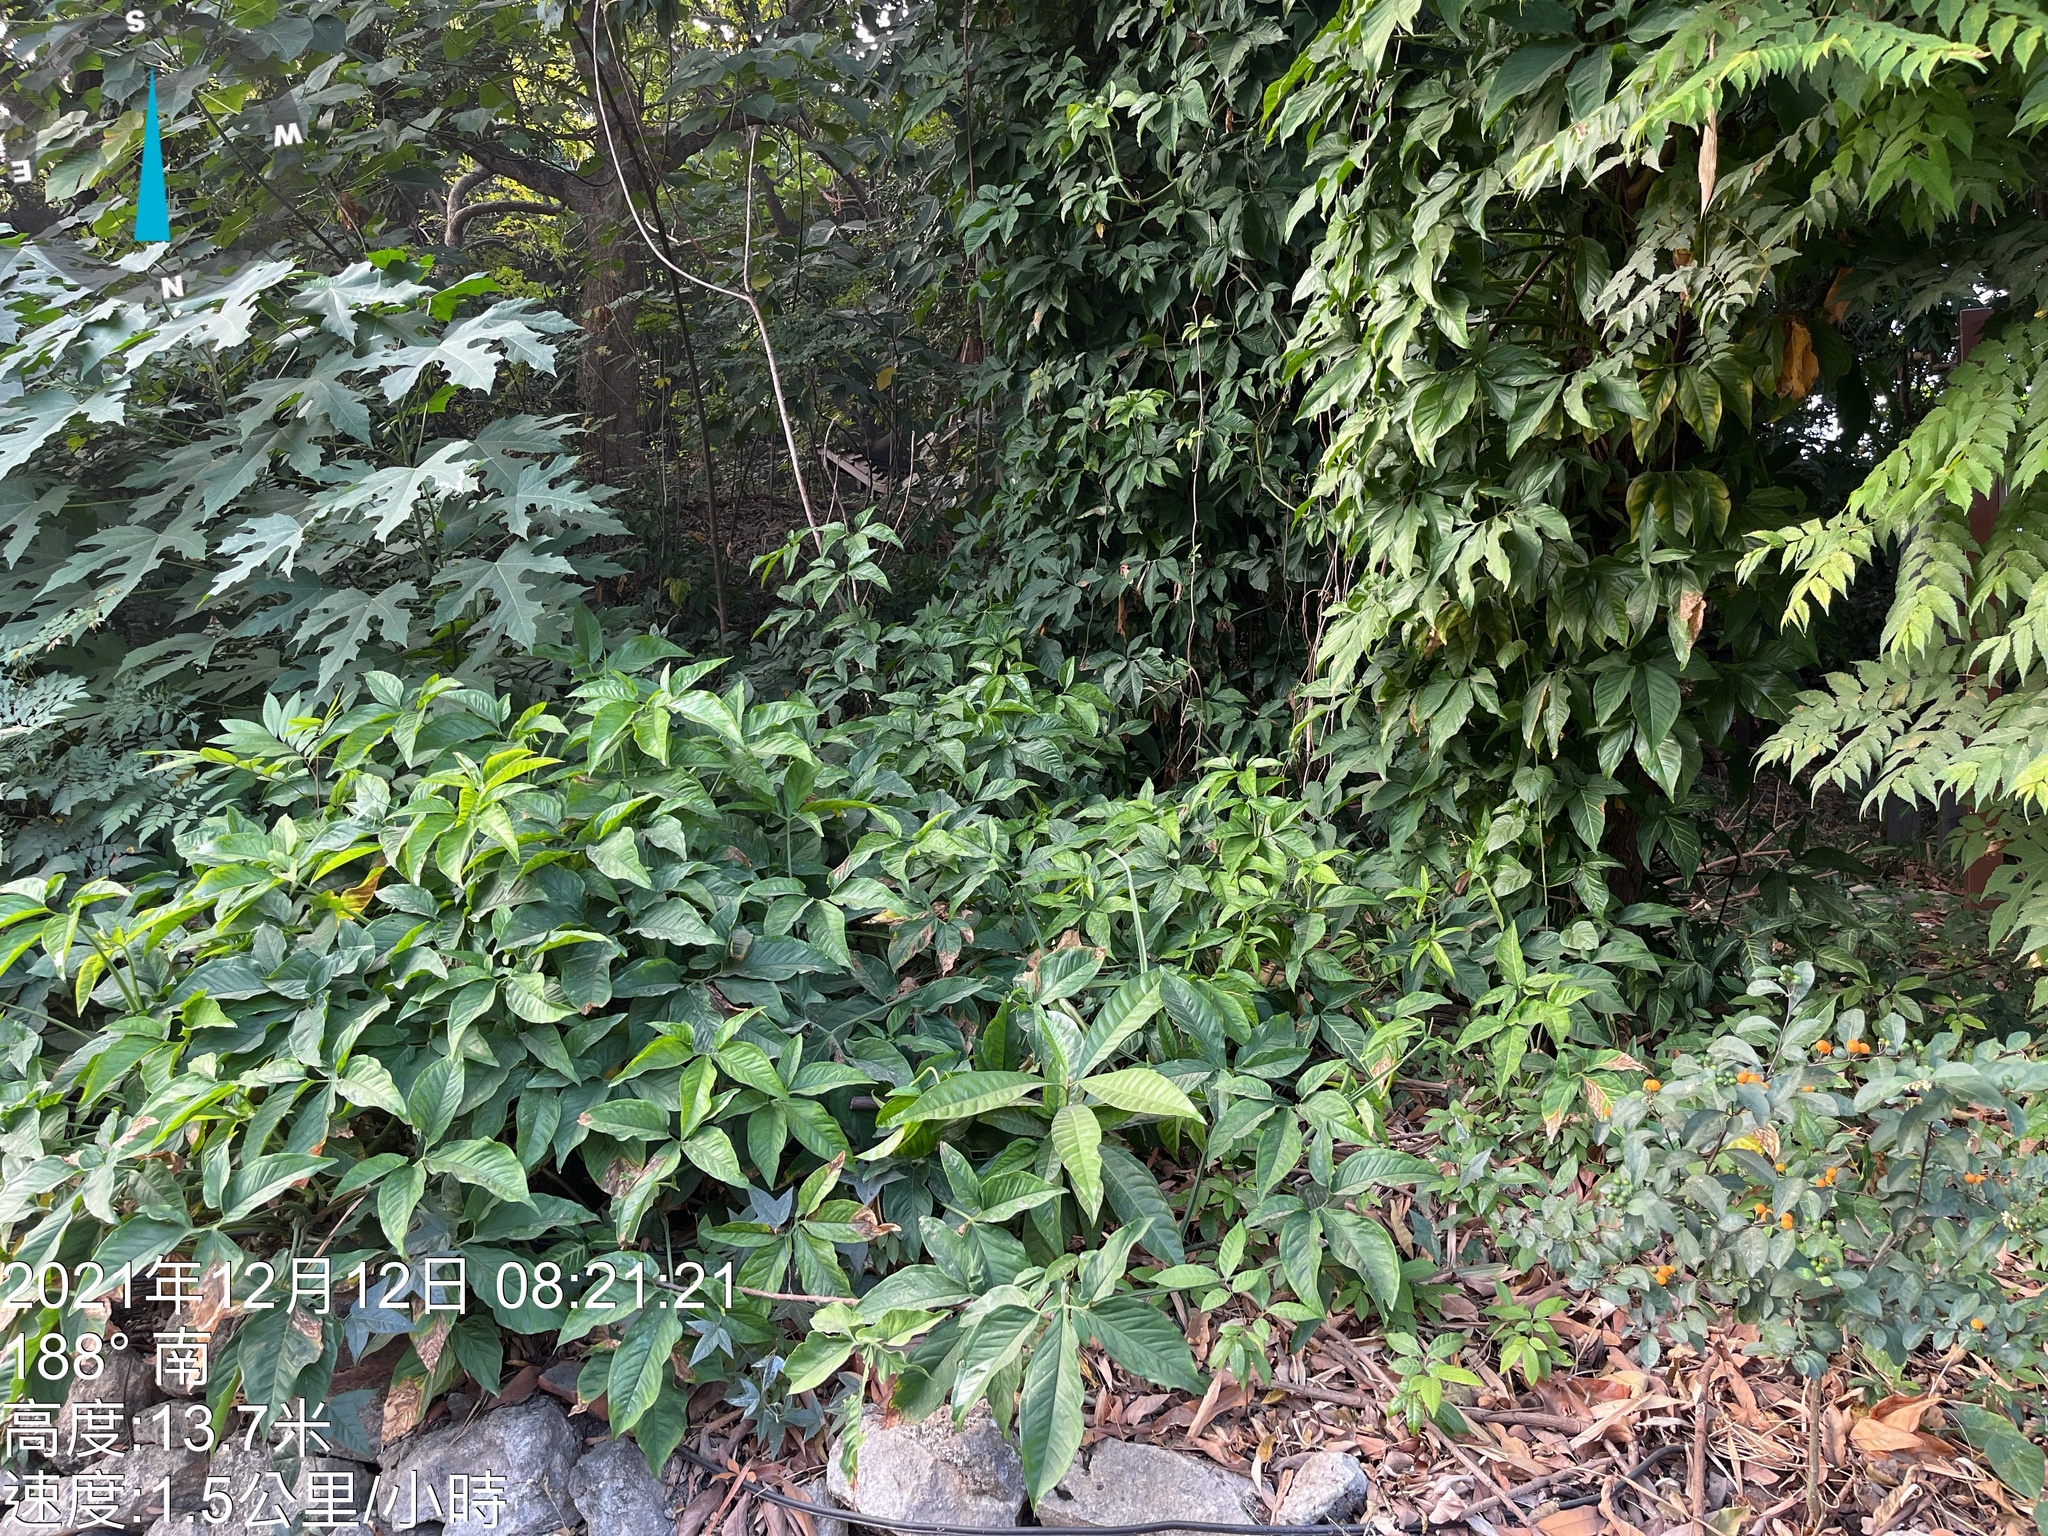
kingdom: Plantae
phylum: Tracheophyta
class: Liliopsida
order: Alismatales
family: Araceae
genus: Syngonium
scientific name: Syngonium angustatum
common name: Fivefingers
